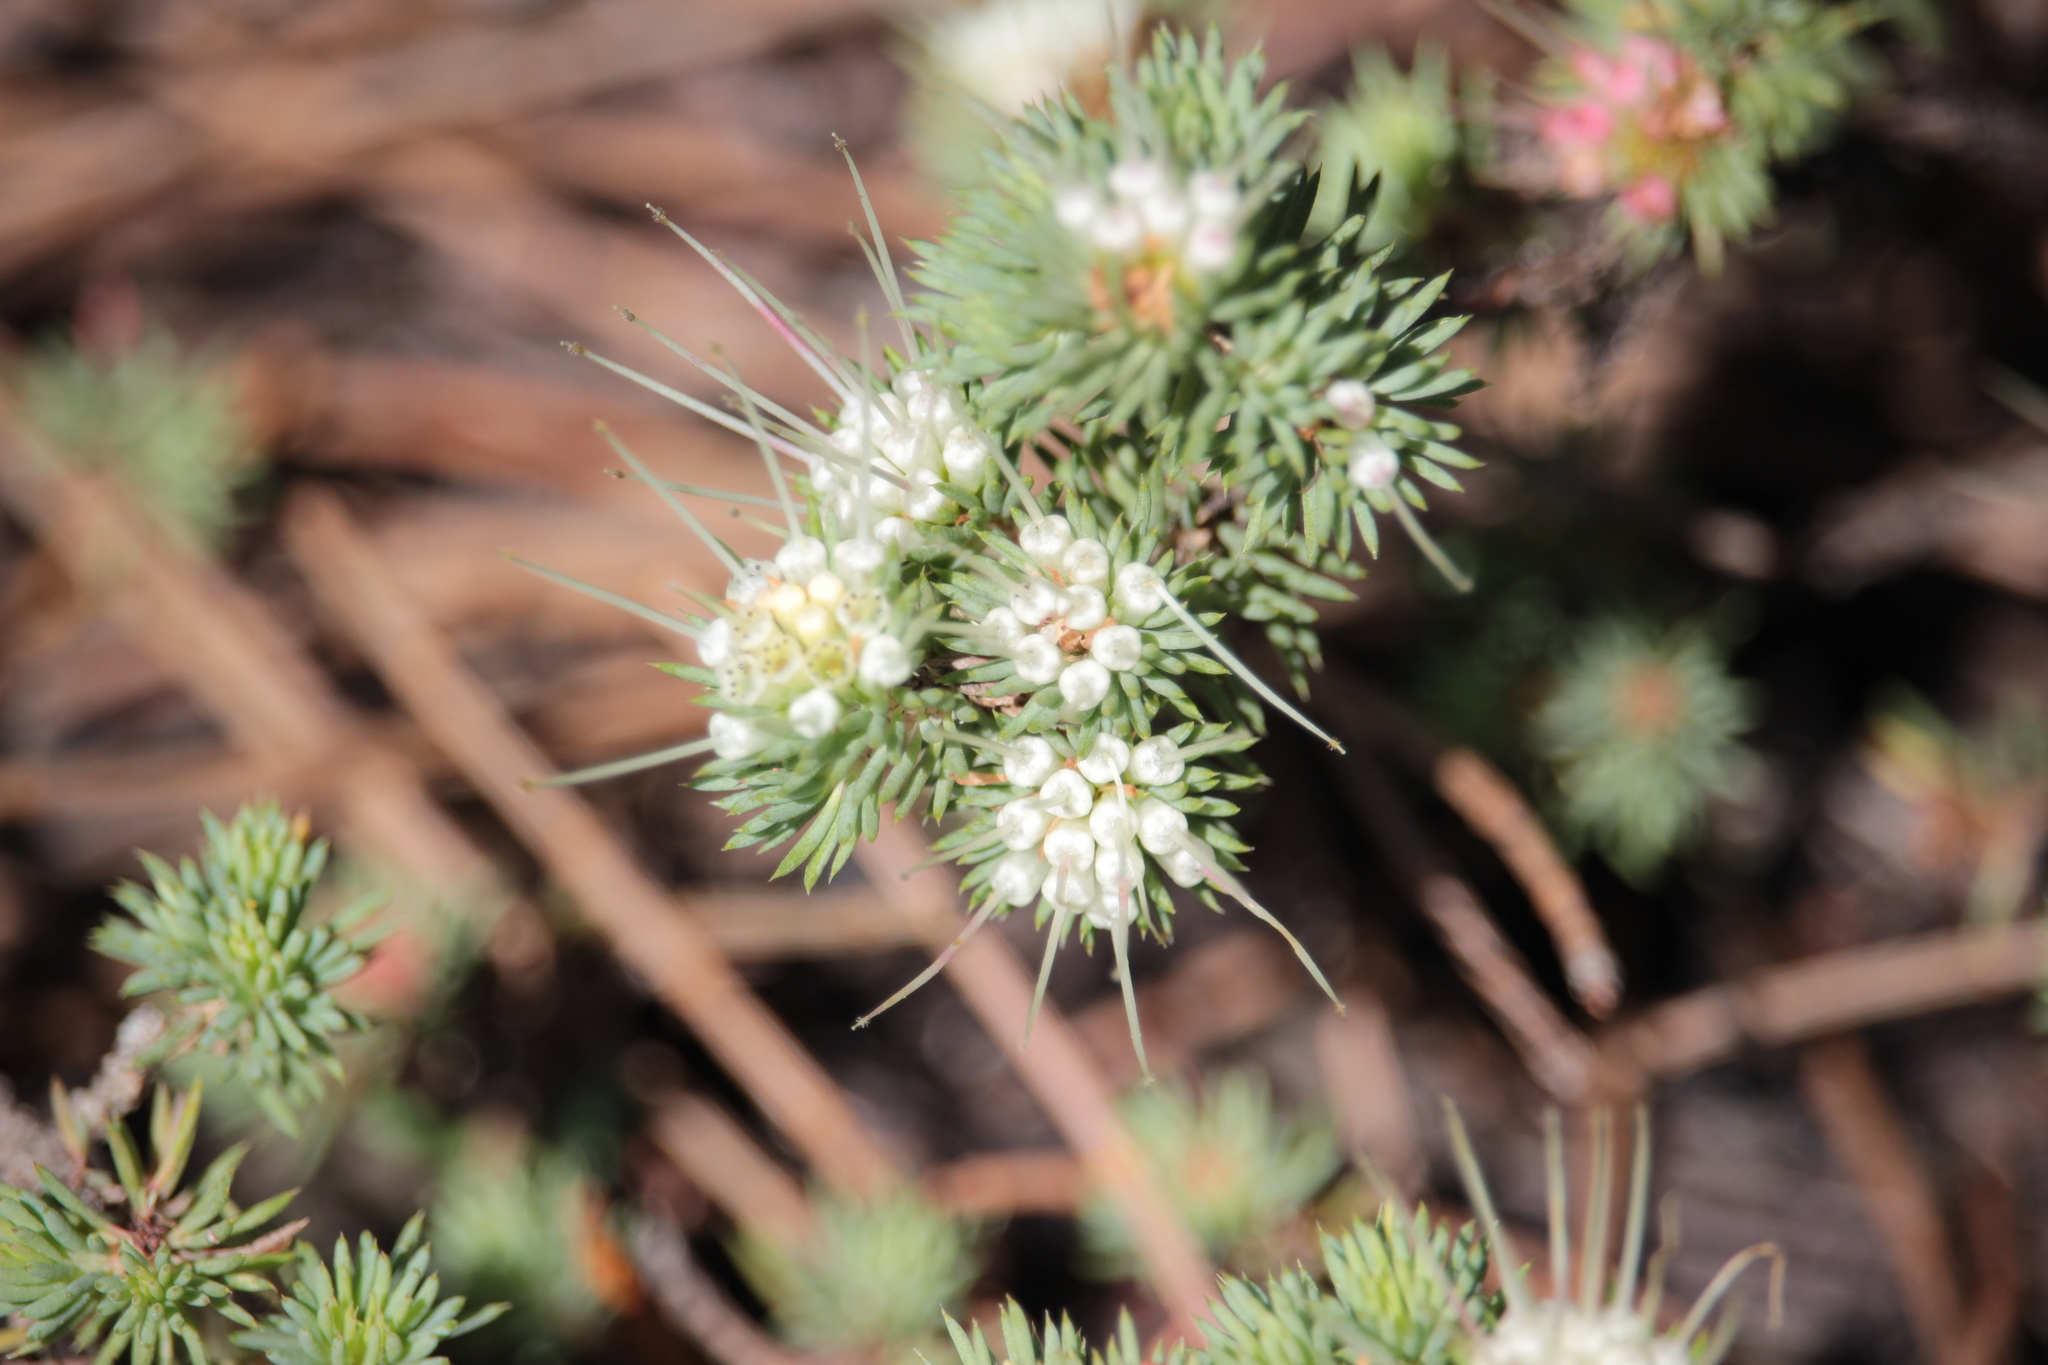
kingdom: Plantae
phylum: Tracheophyta
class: Magnoliopsida
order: Myrtales
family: Myrtaceae
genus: Darwinia
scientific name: Darwinia fascicularis
